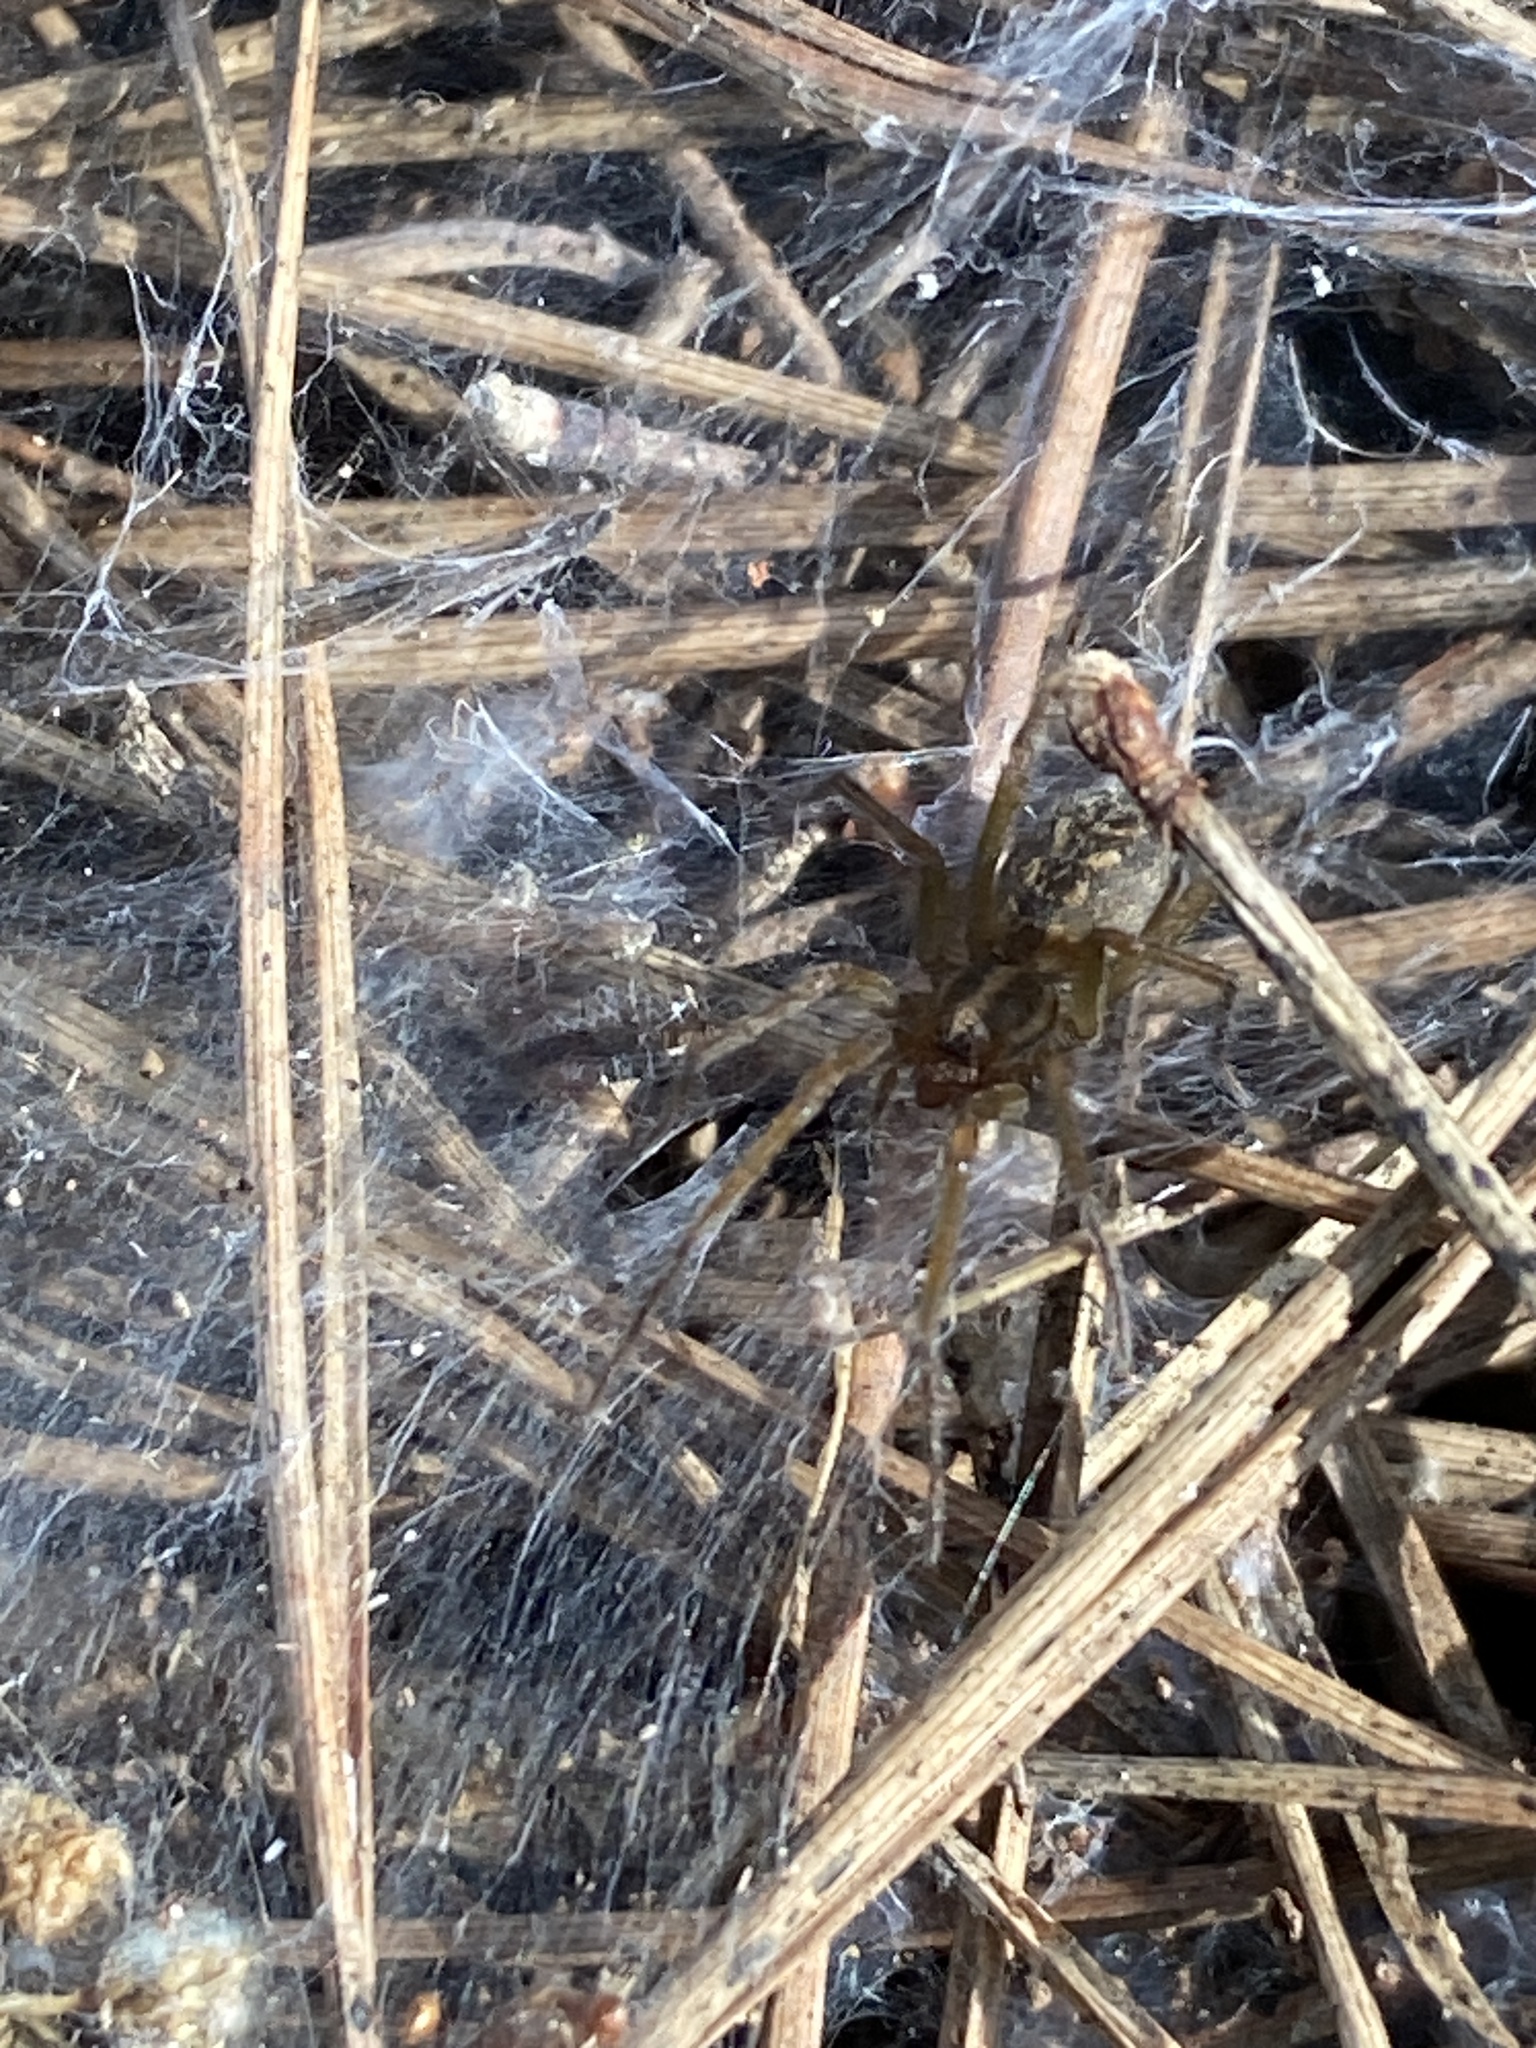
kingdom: Animalia
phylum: Arthropoda
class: Arachnida
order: Araneae
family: Agelenidae
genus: Lycosoides
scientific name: Lycosoides coarctata
